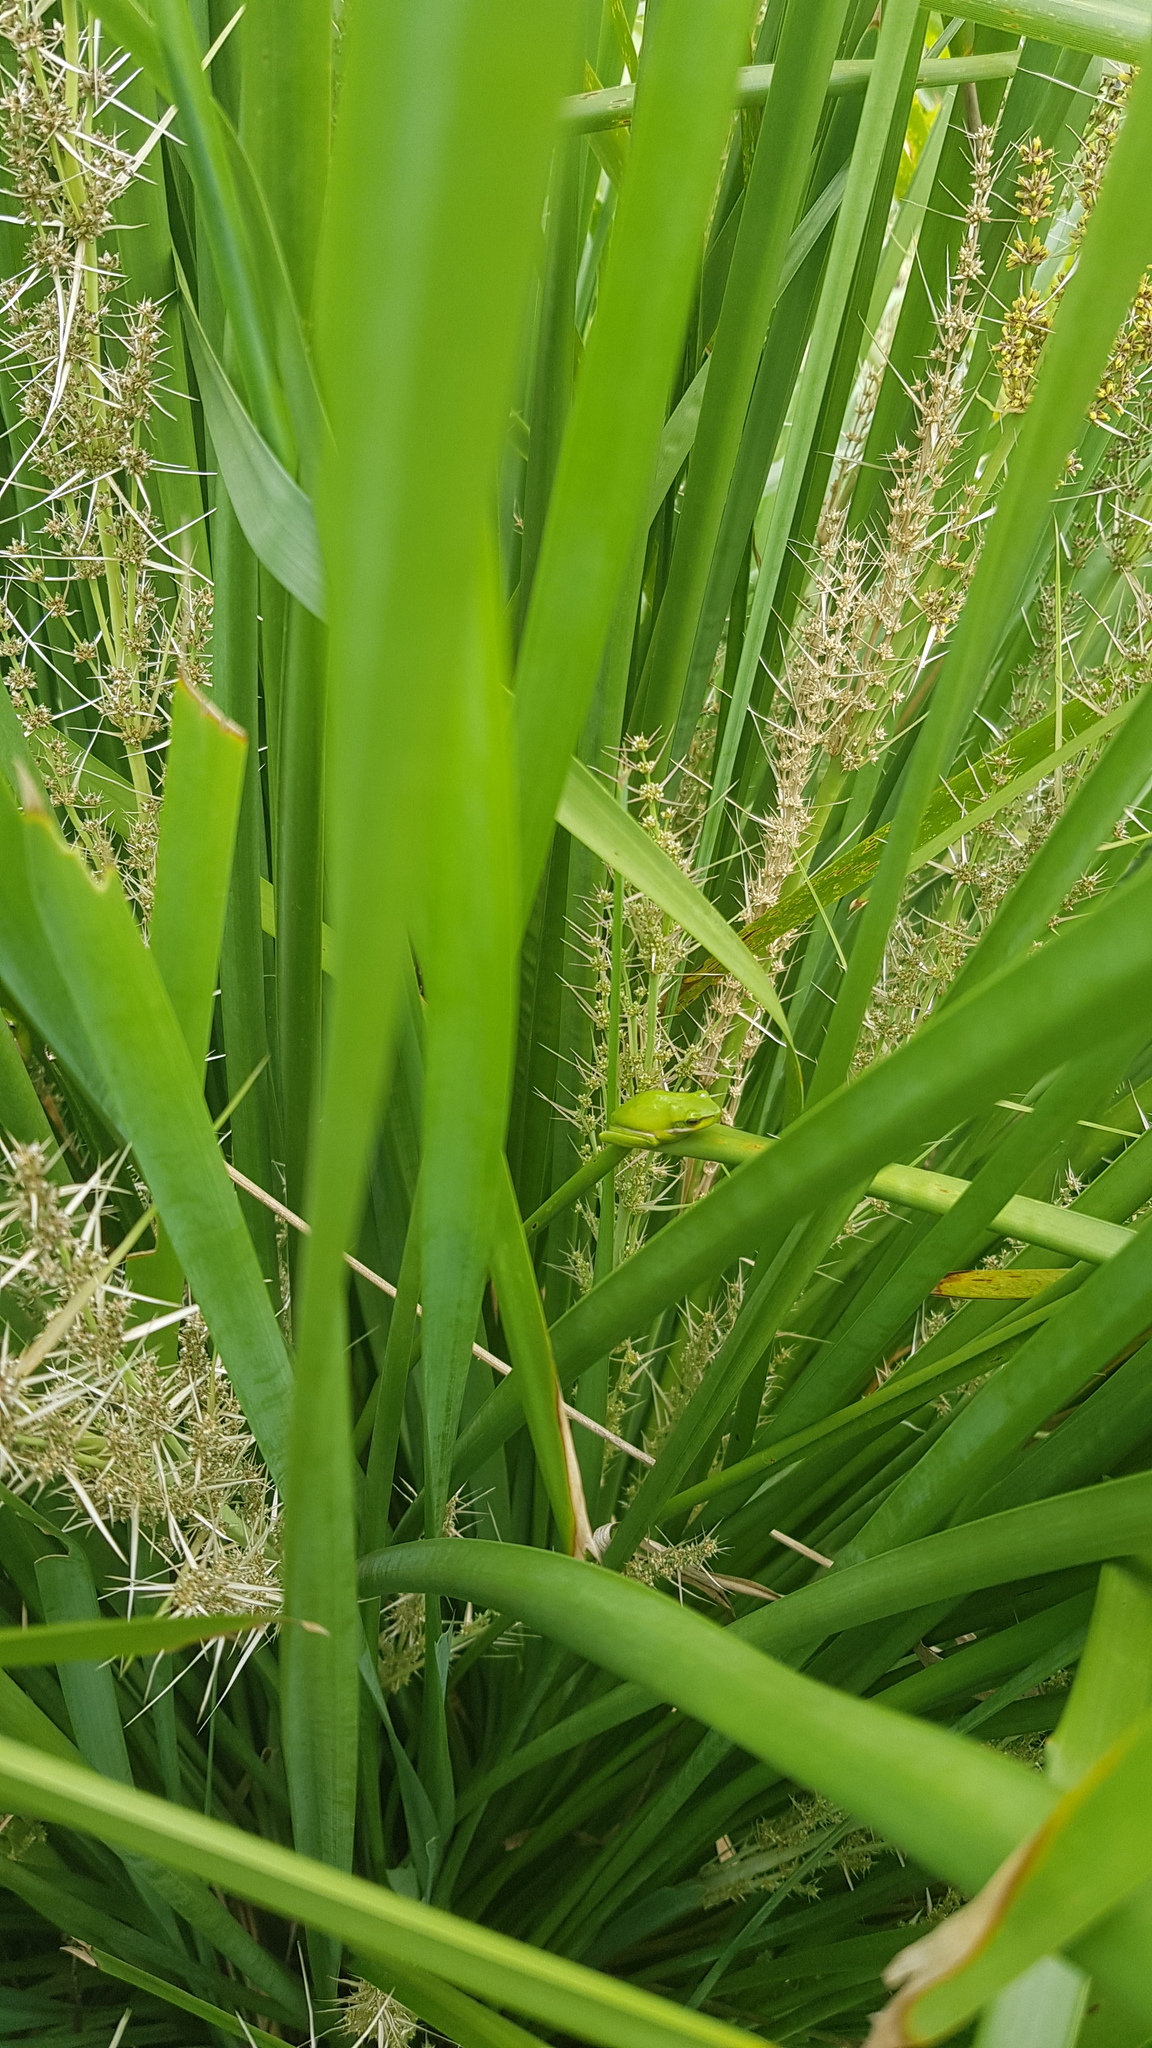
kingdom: Animalia
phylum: Chordata
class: Amphibia
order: Anura
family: Pelodryadidae
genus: Litoria
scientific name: Litoria fallax
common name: Eastern dwarf treefrog
